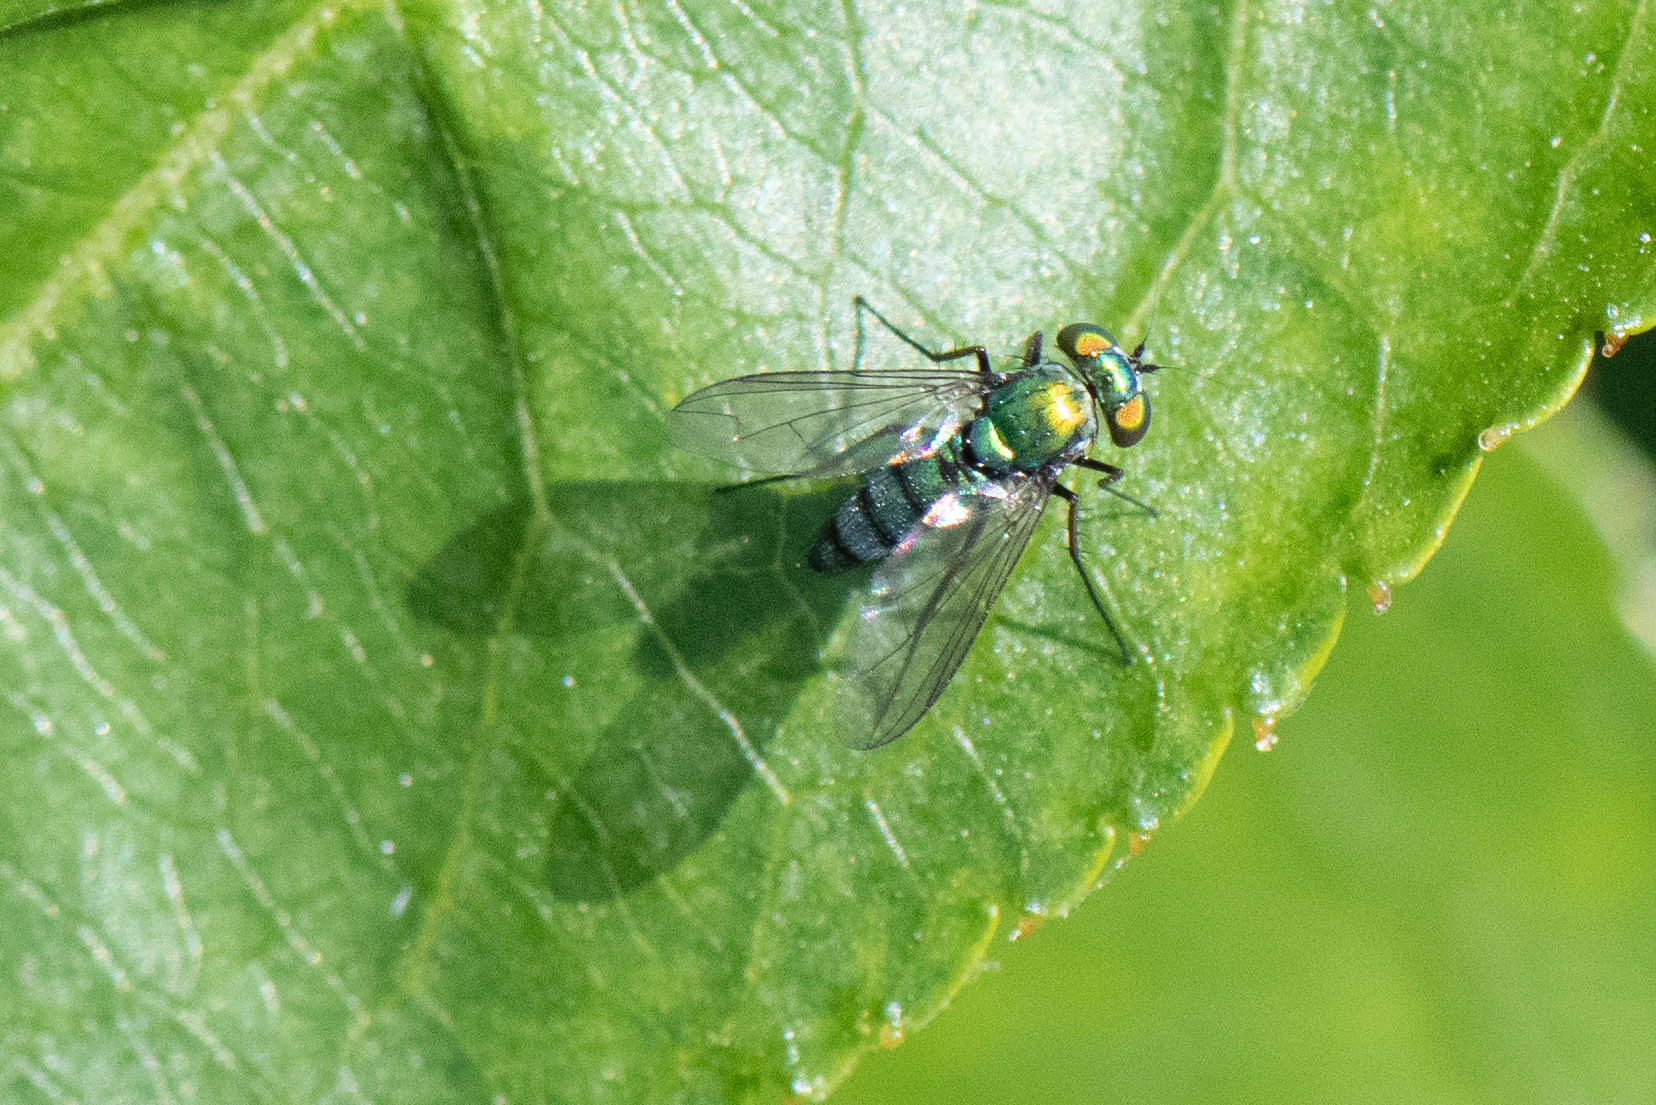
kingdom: Animalia
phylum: Arthropoda
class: Insecta
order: Diptera
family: Dolichopodidae
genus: Condylostylus
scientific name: Condylostylus longicornis
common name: Long-legged fly
